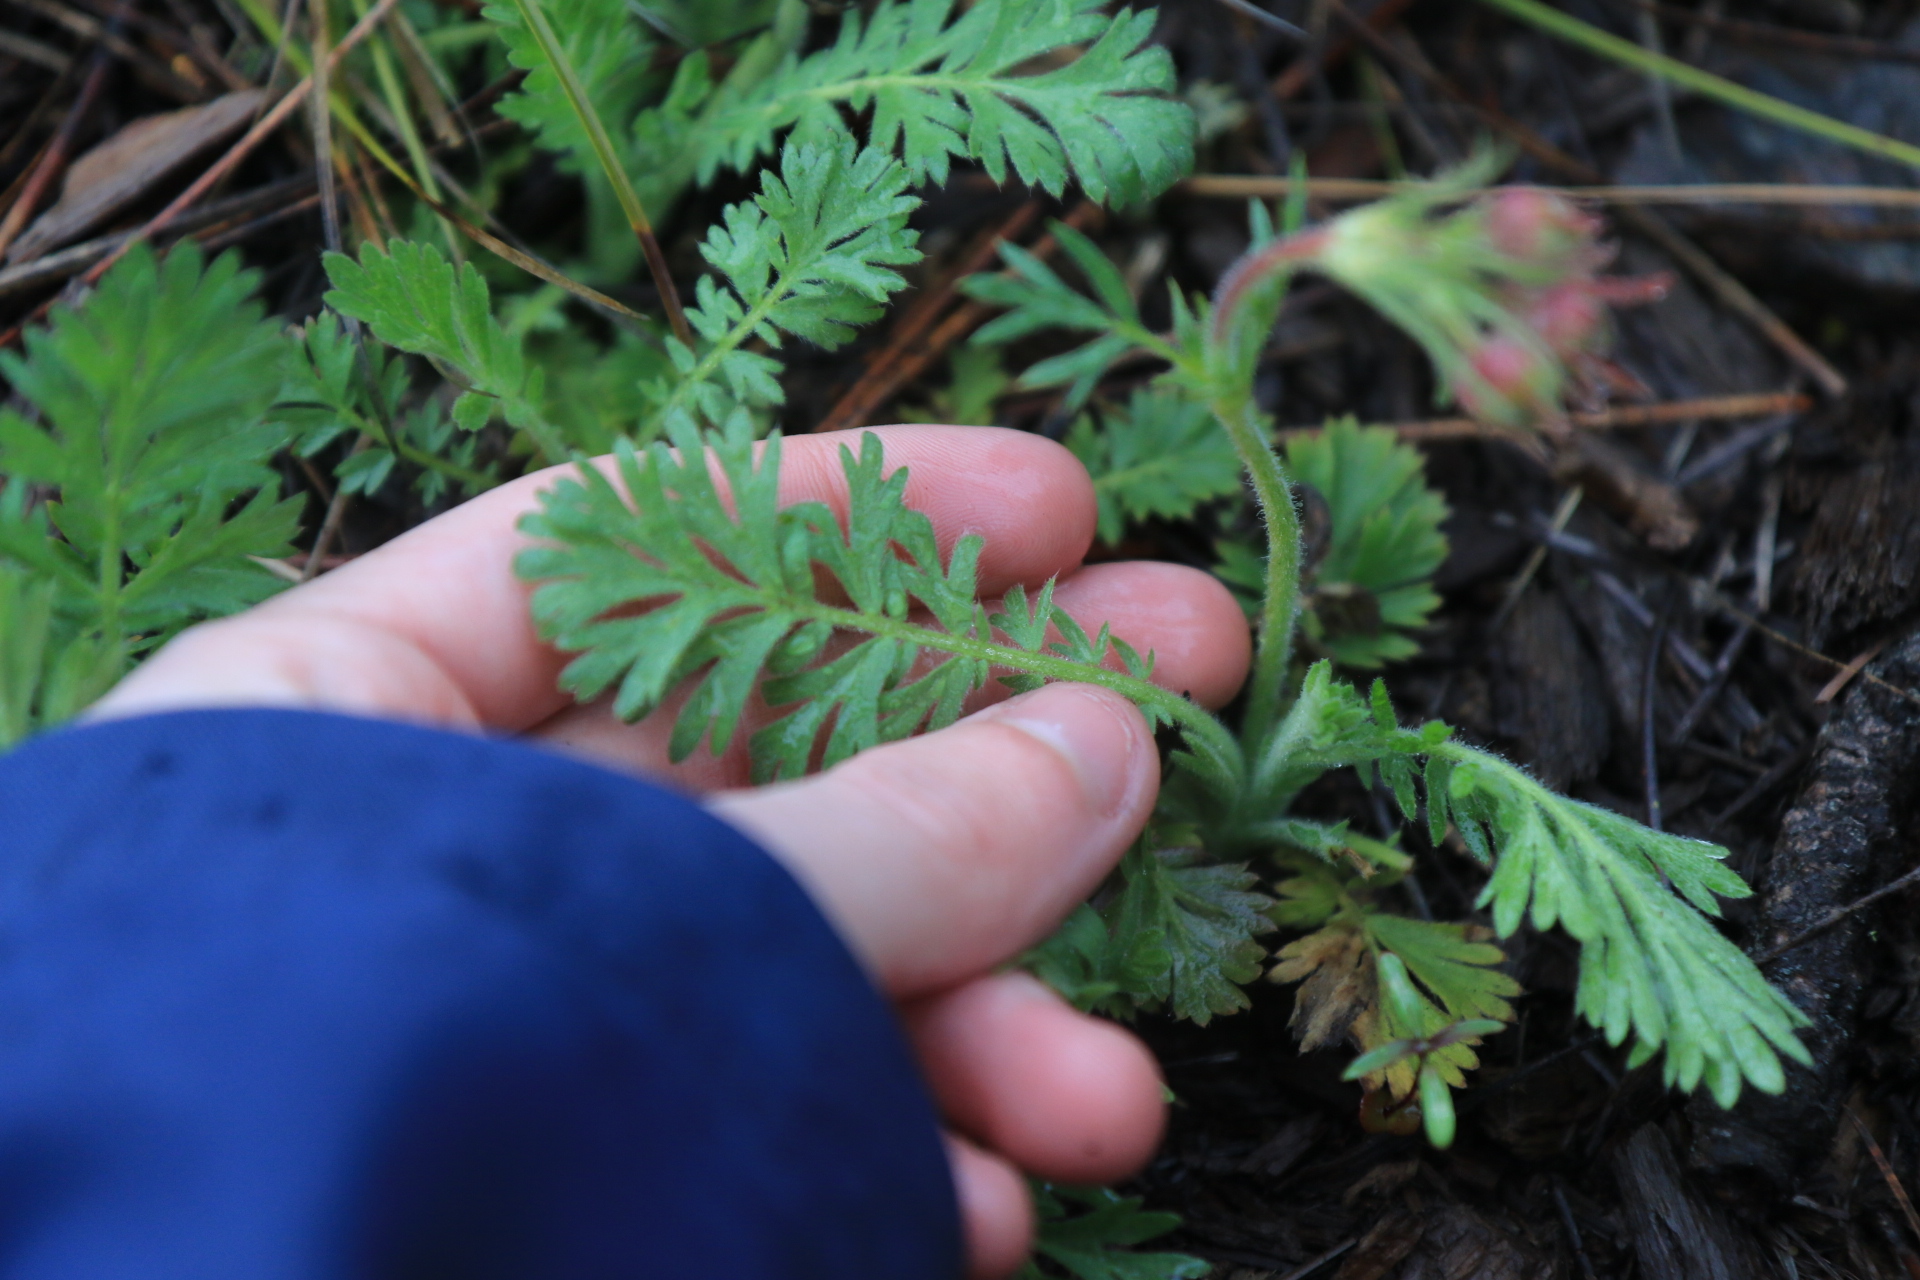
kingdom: Plantae
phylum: Tracheophyta
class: Magnoliopsida
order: Rosales
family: Rosaceae
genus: Geum
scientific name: Geum triflorum
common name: Old man's whiskers
